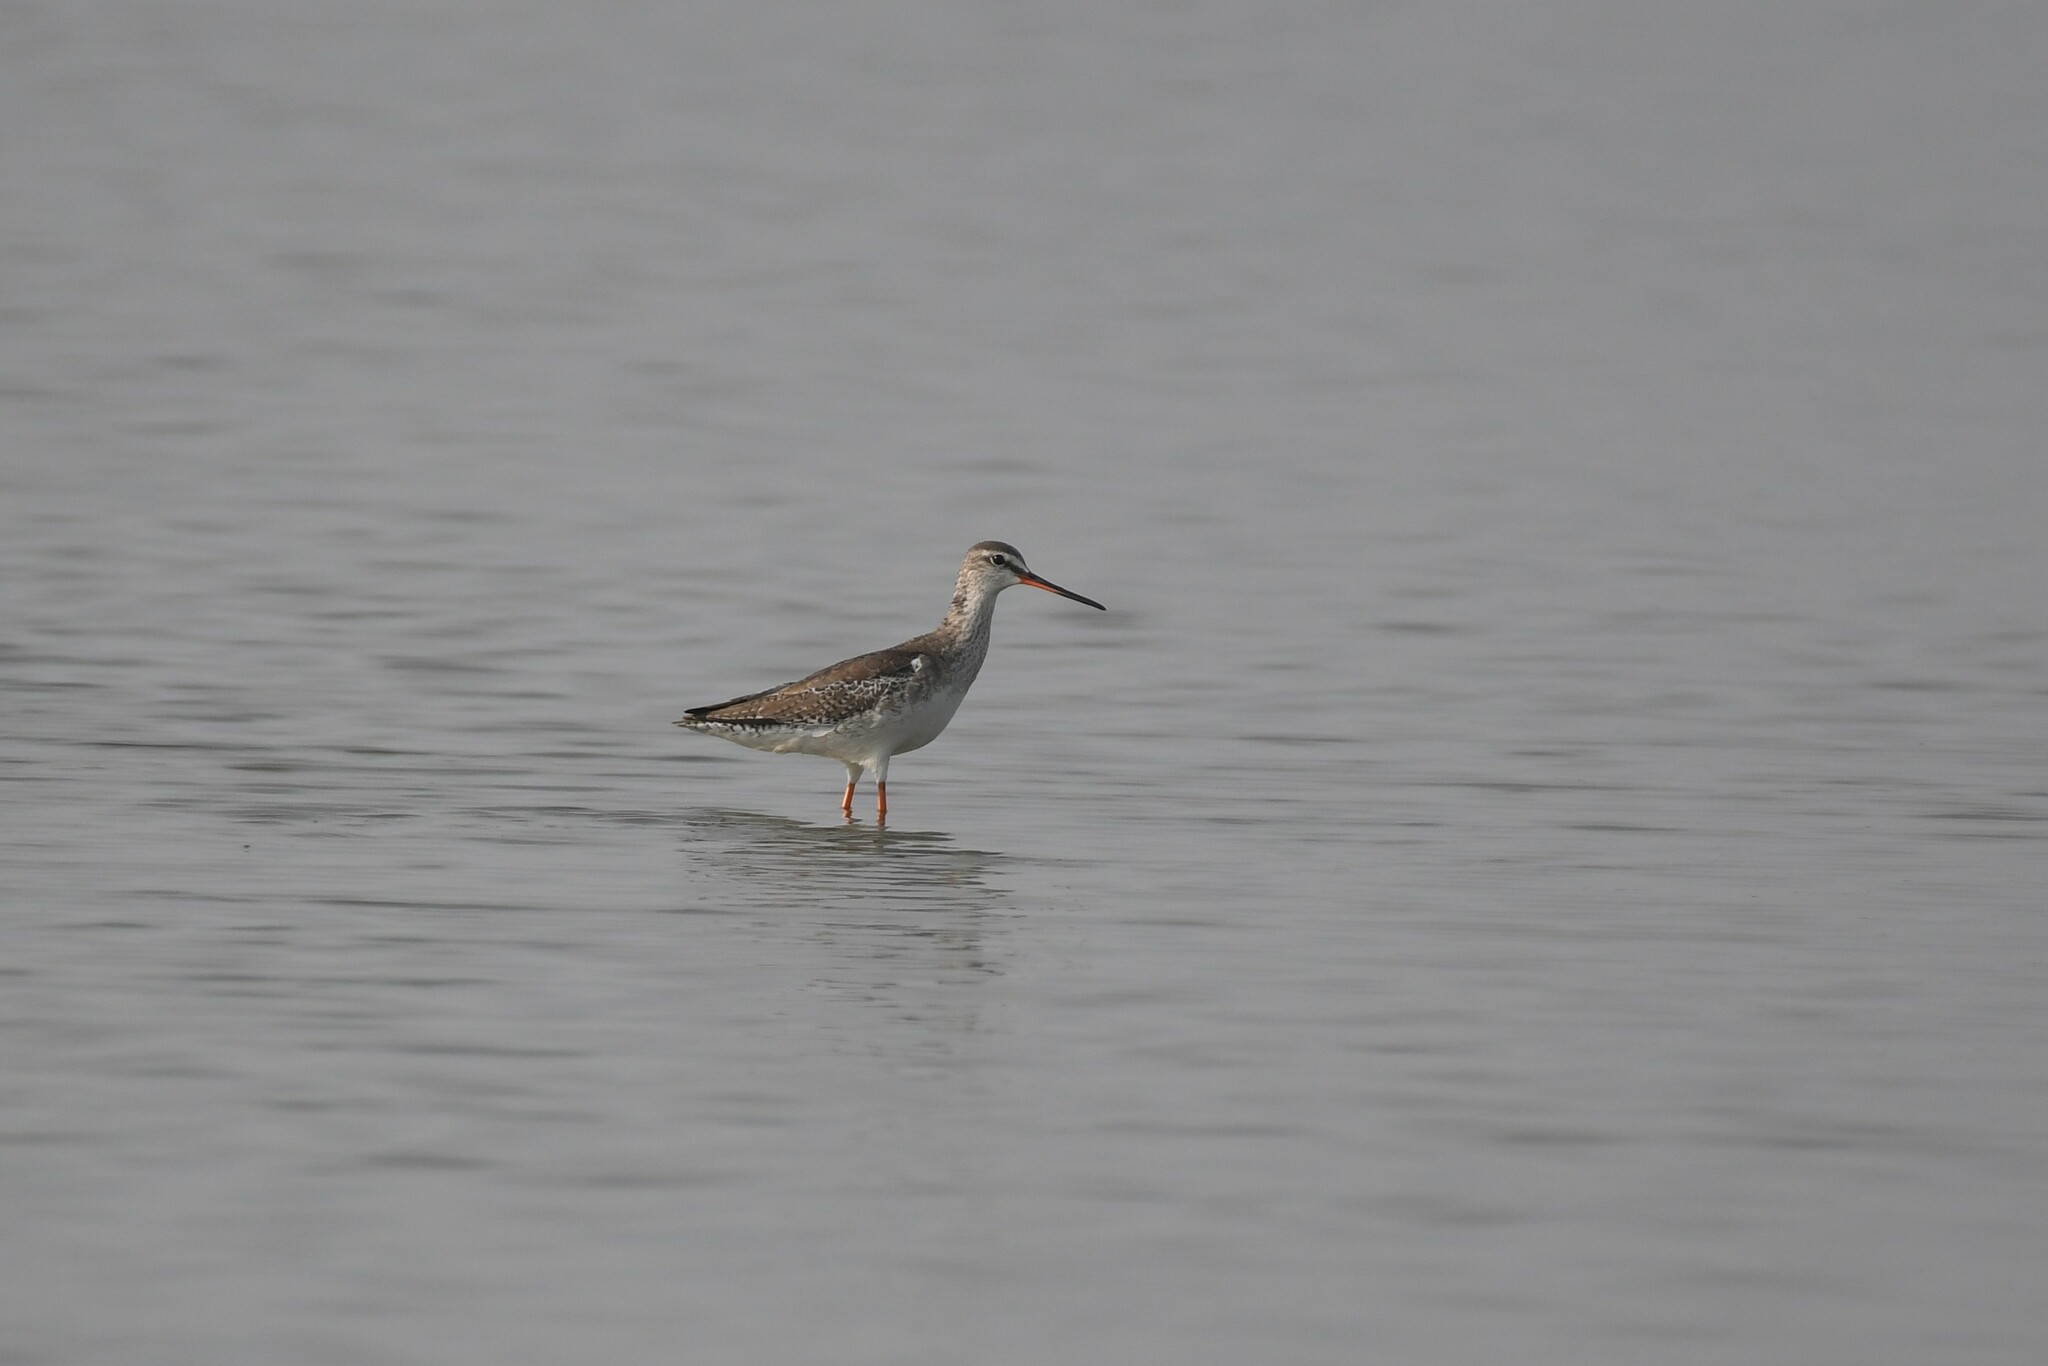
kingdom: Animalia
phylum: Chordata
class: Aves
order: Charadriiformes
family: Scolopacidae
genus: Tringa
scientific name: Tringa erythropus
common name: Spotted redshank
